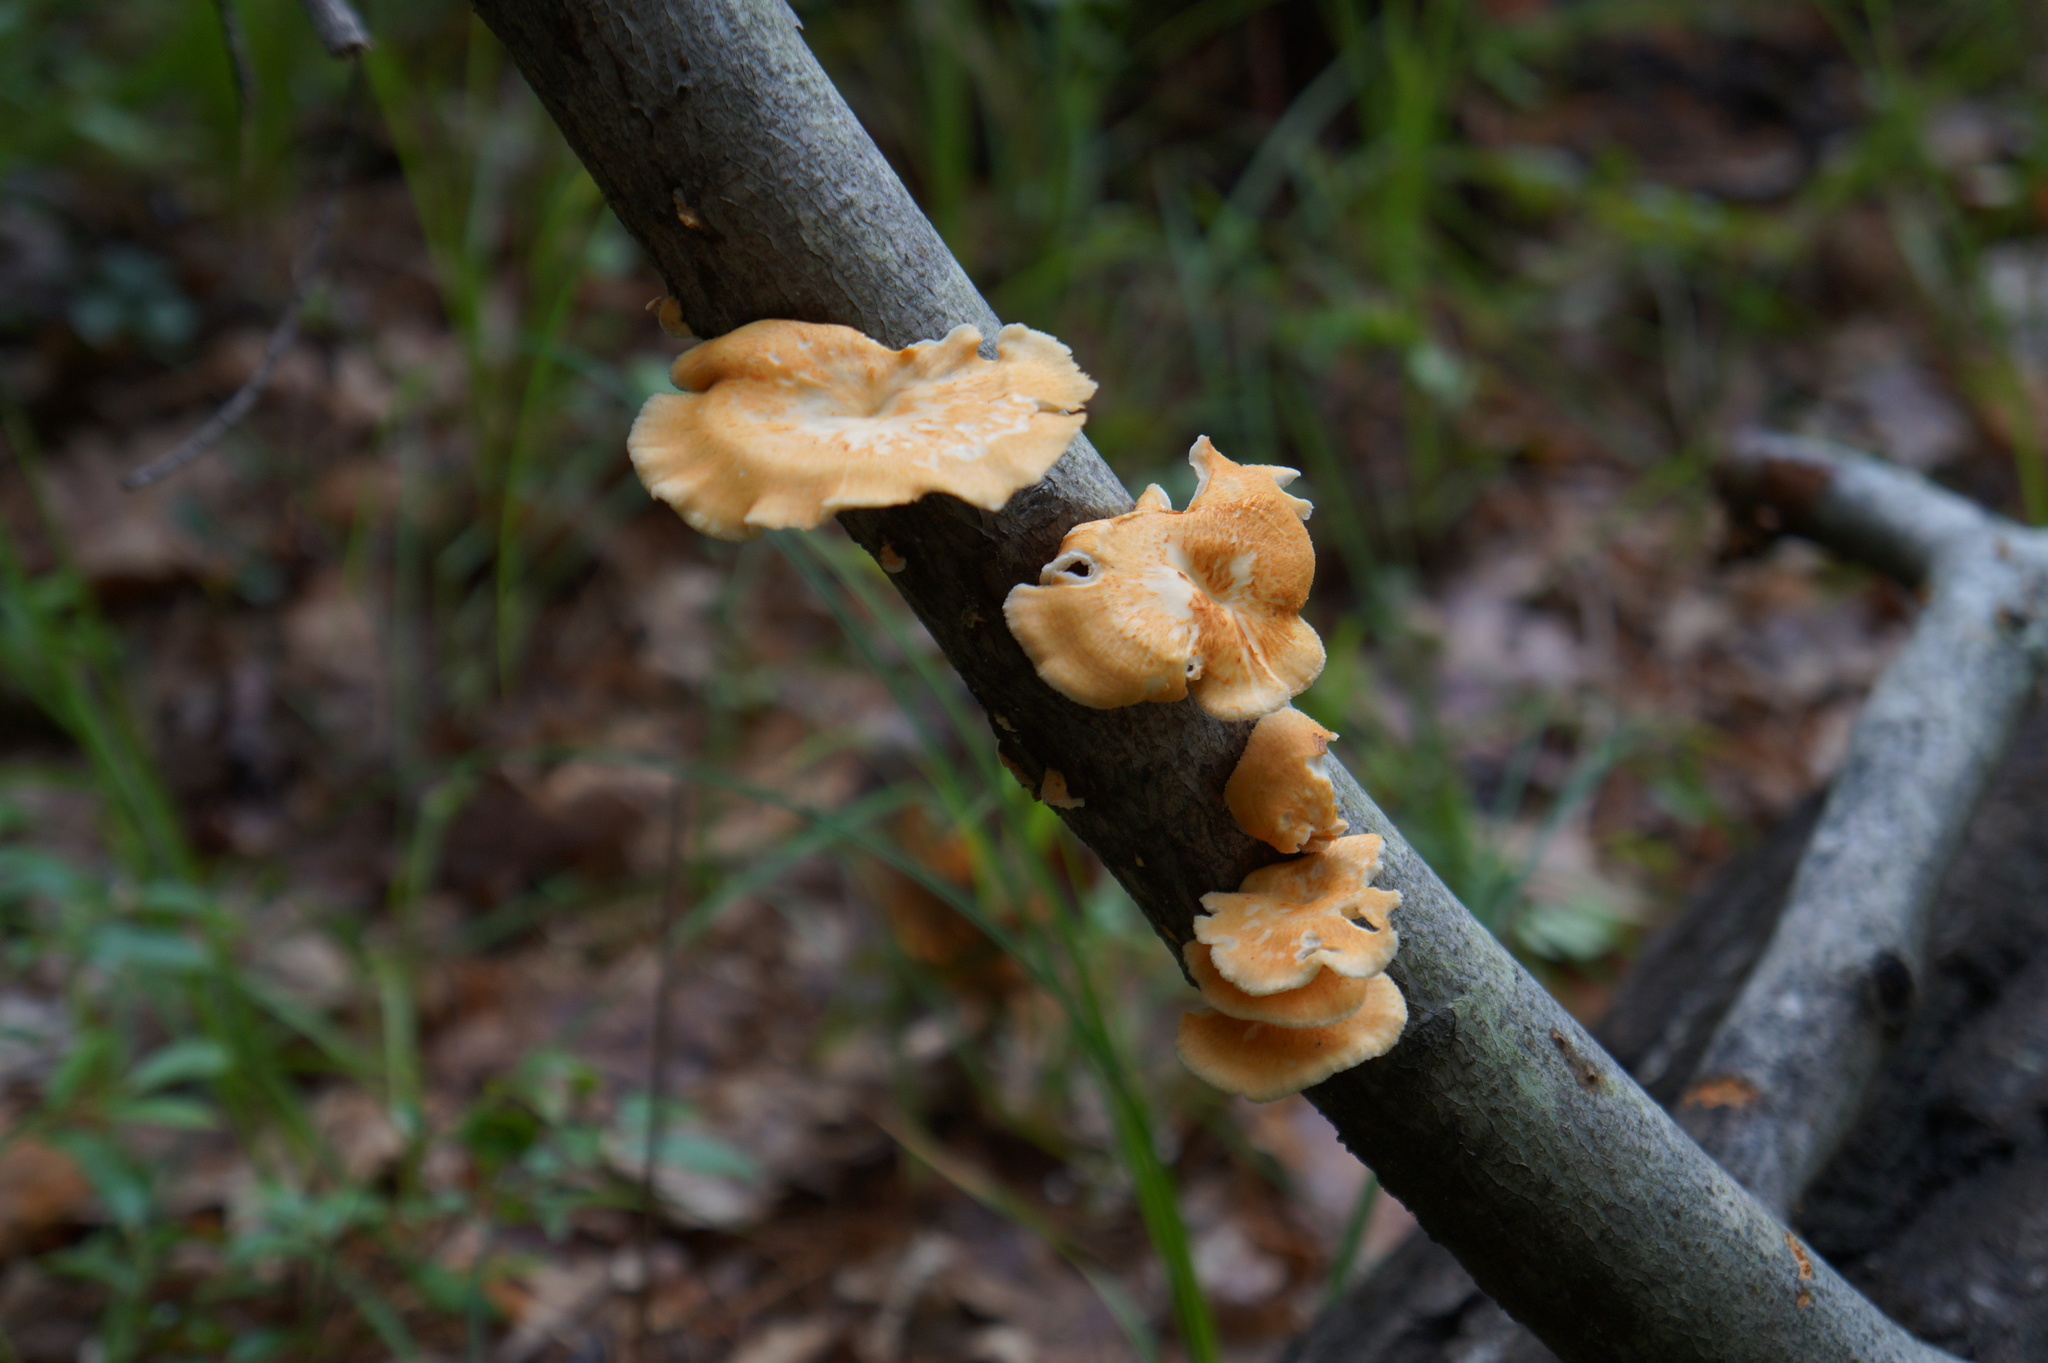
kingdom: Fungi
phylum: Basidiomycota
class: Agaricomycetes
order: Polyporales
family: Polyporaceae
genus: Neofavolus
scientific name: Neofavolus alveolaris
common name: Hexagonal-pored polypore
